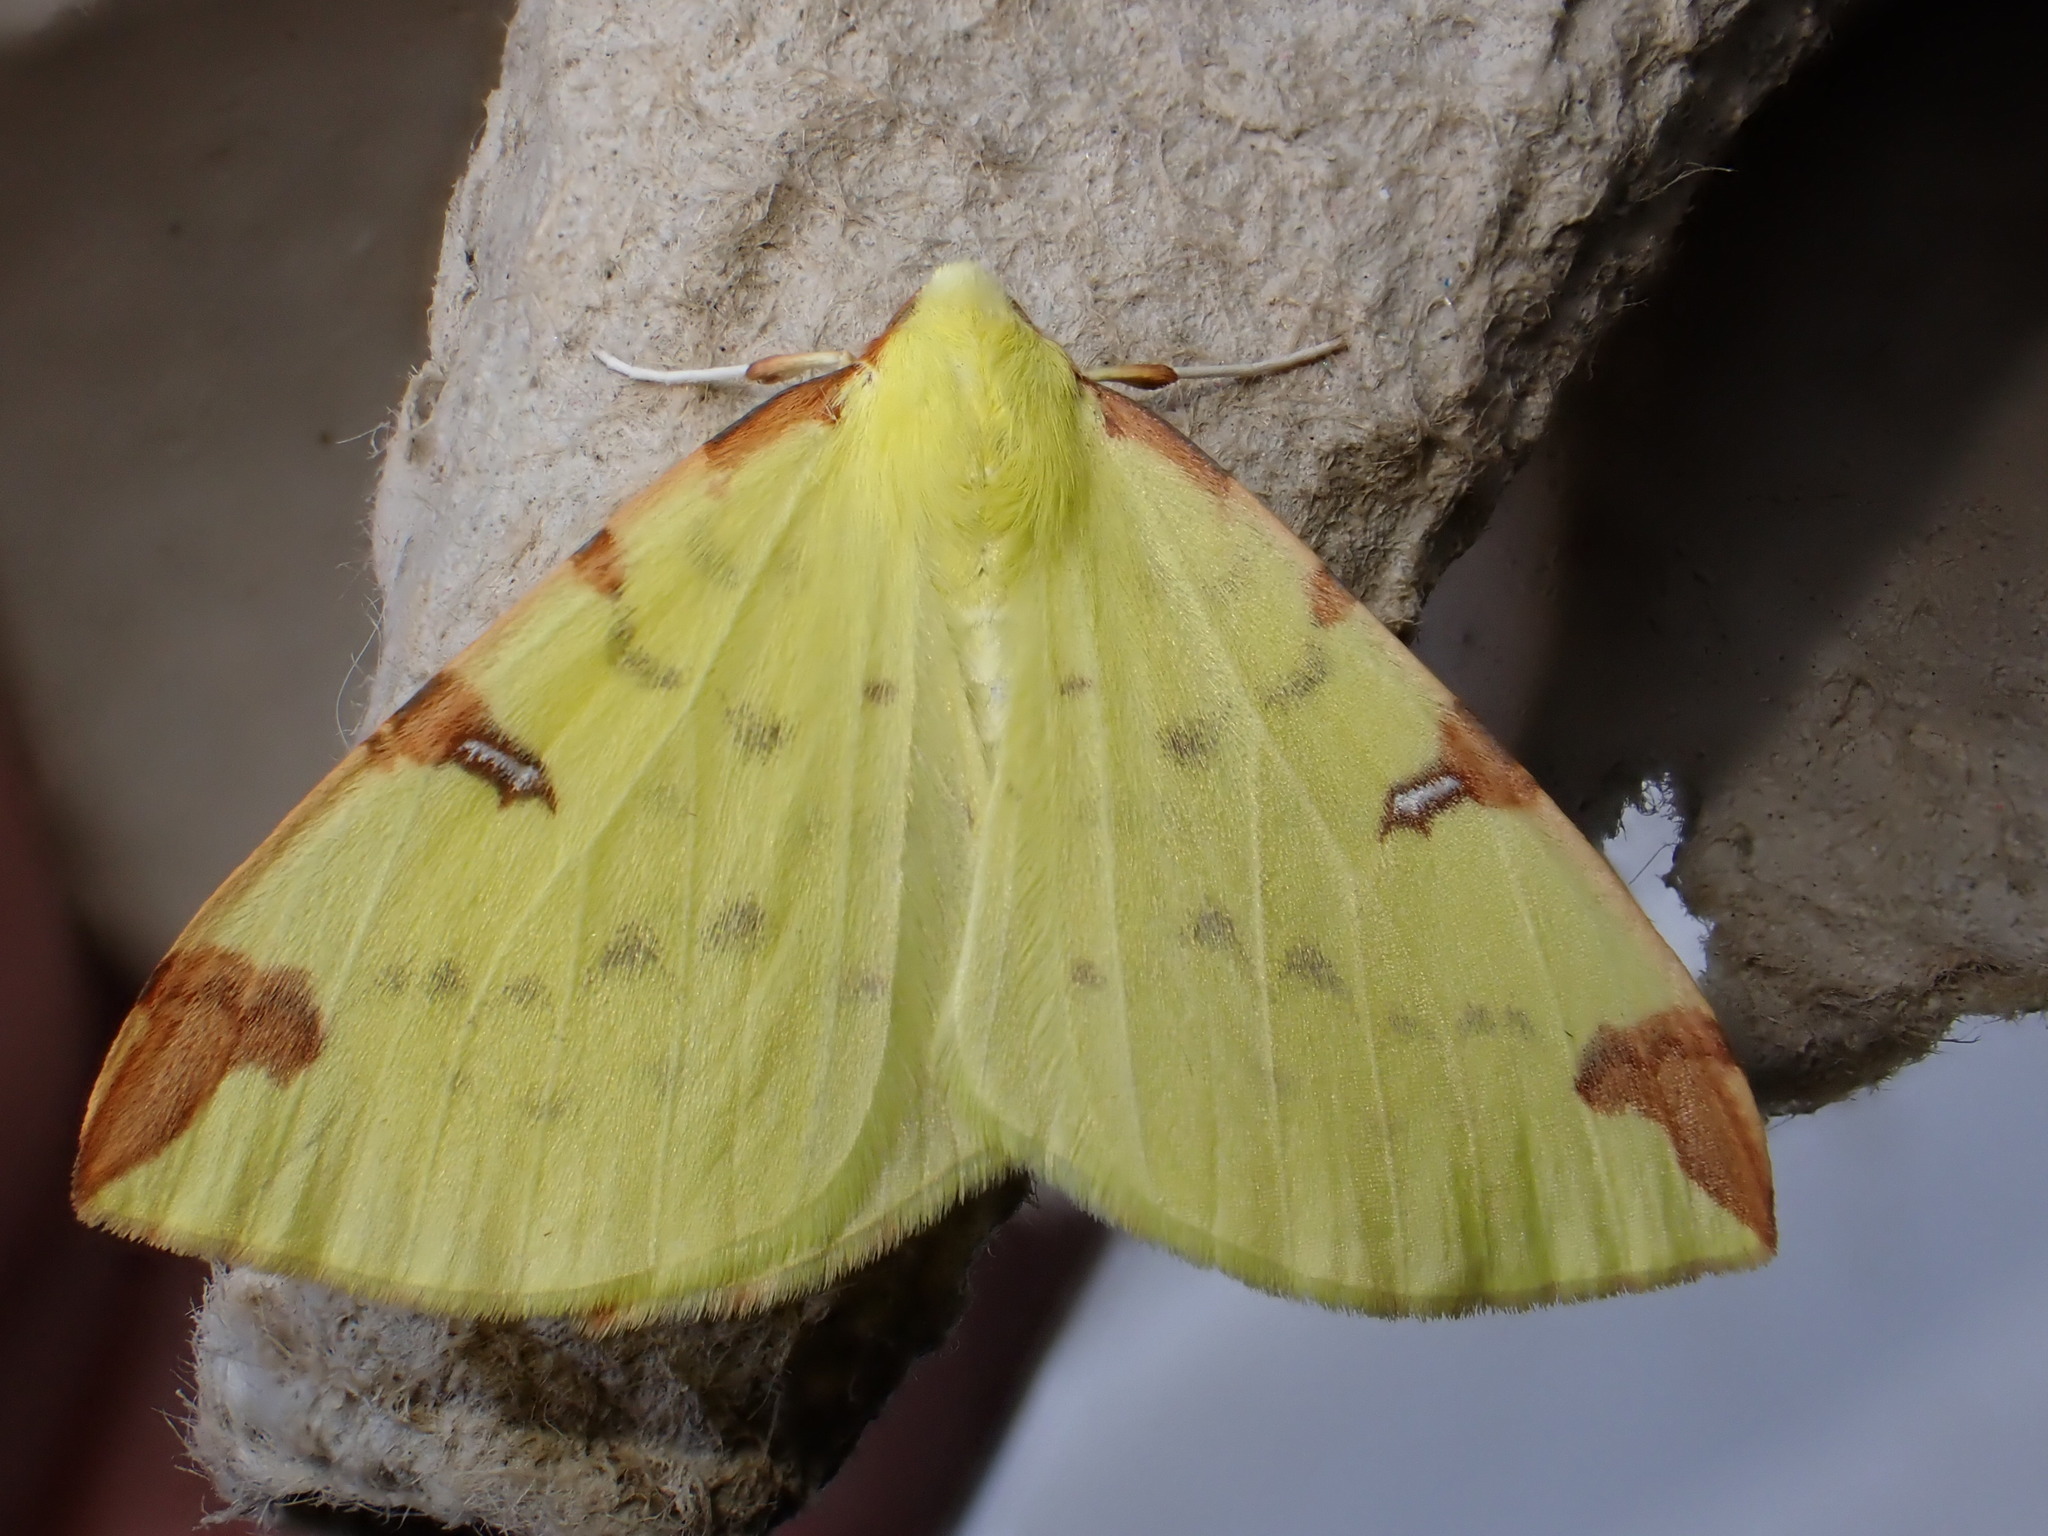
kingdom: Animalia
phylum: Arthropoda
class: Insecta
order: Lepidoptera
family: Geometridae
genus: Opisthograptis
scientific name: Opisthograptis luteolata
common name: Brimstone moth
